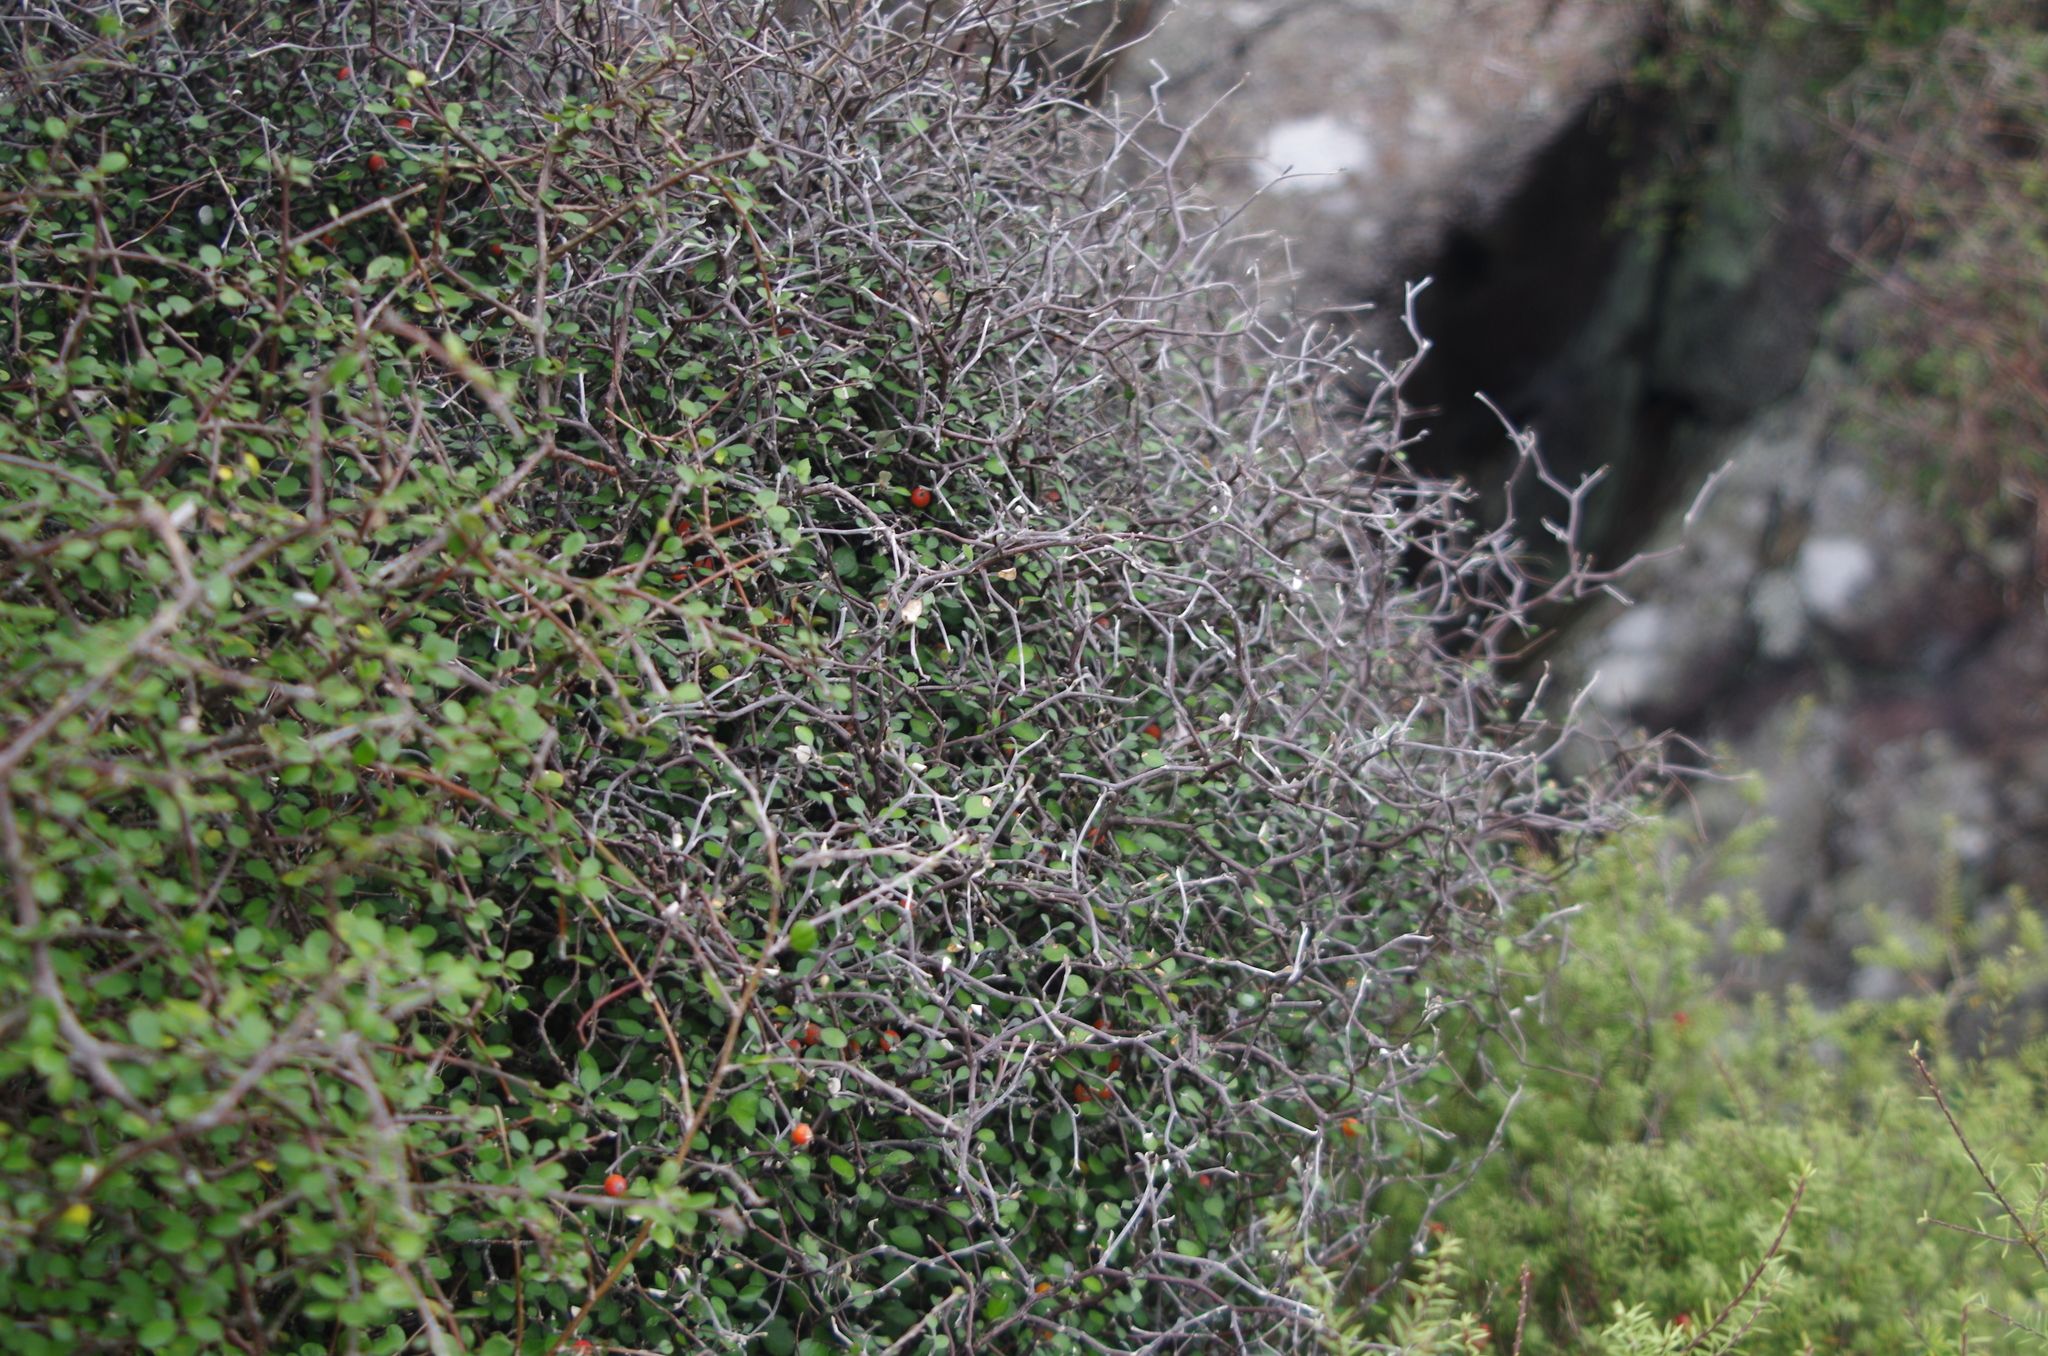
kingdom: Plantae
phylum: Tracheophyta
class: Magnoliopsida
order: Asterales
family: Argophyllaceae
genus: Corokia
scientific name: Corokia cotoneaster
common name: Wire nettingbush
